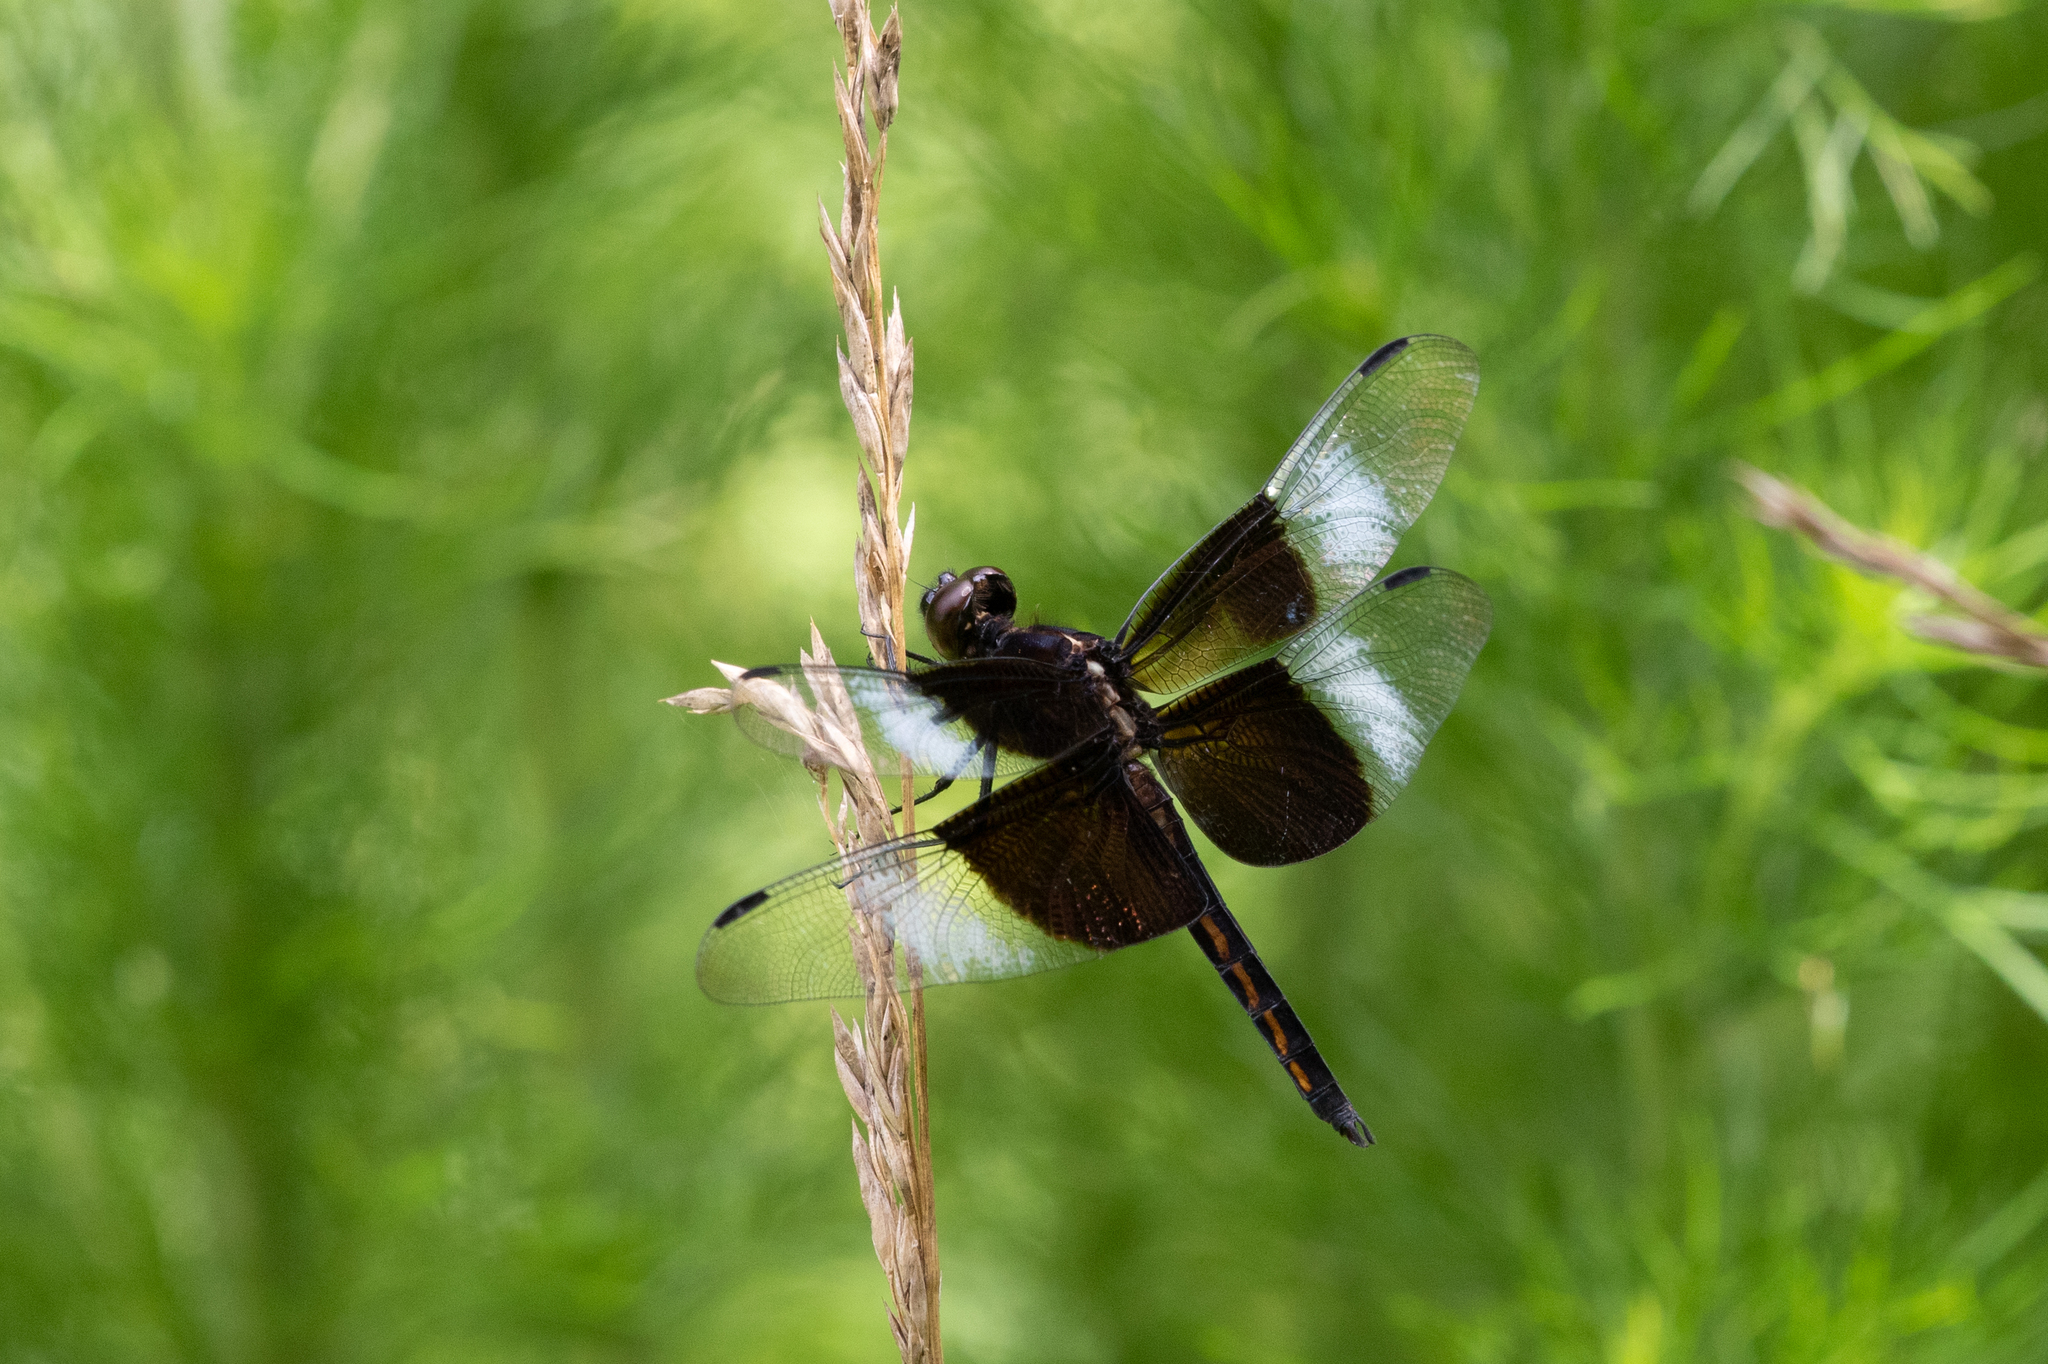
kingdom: Animalia
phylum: Arthropoda
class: Insecta
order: Odonata
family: Libellulidae
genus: Libellula
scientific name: Libellula luctuosa
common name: Widow skimmer
